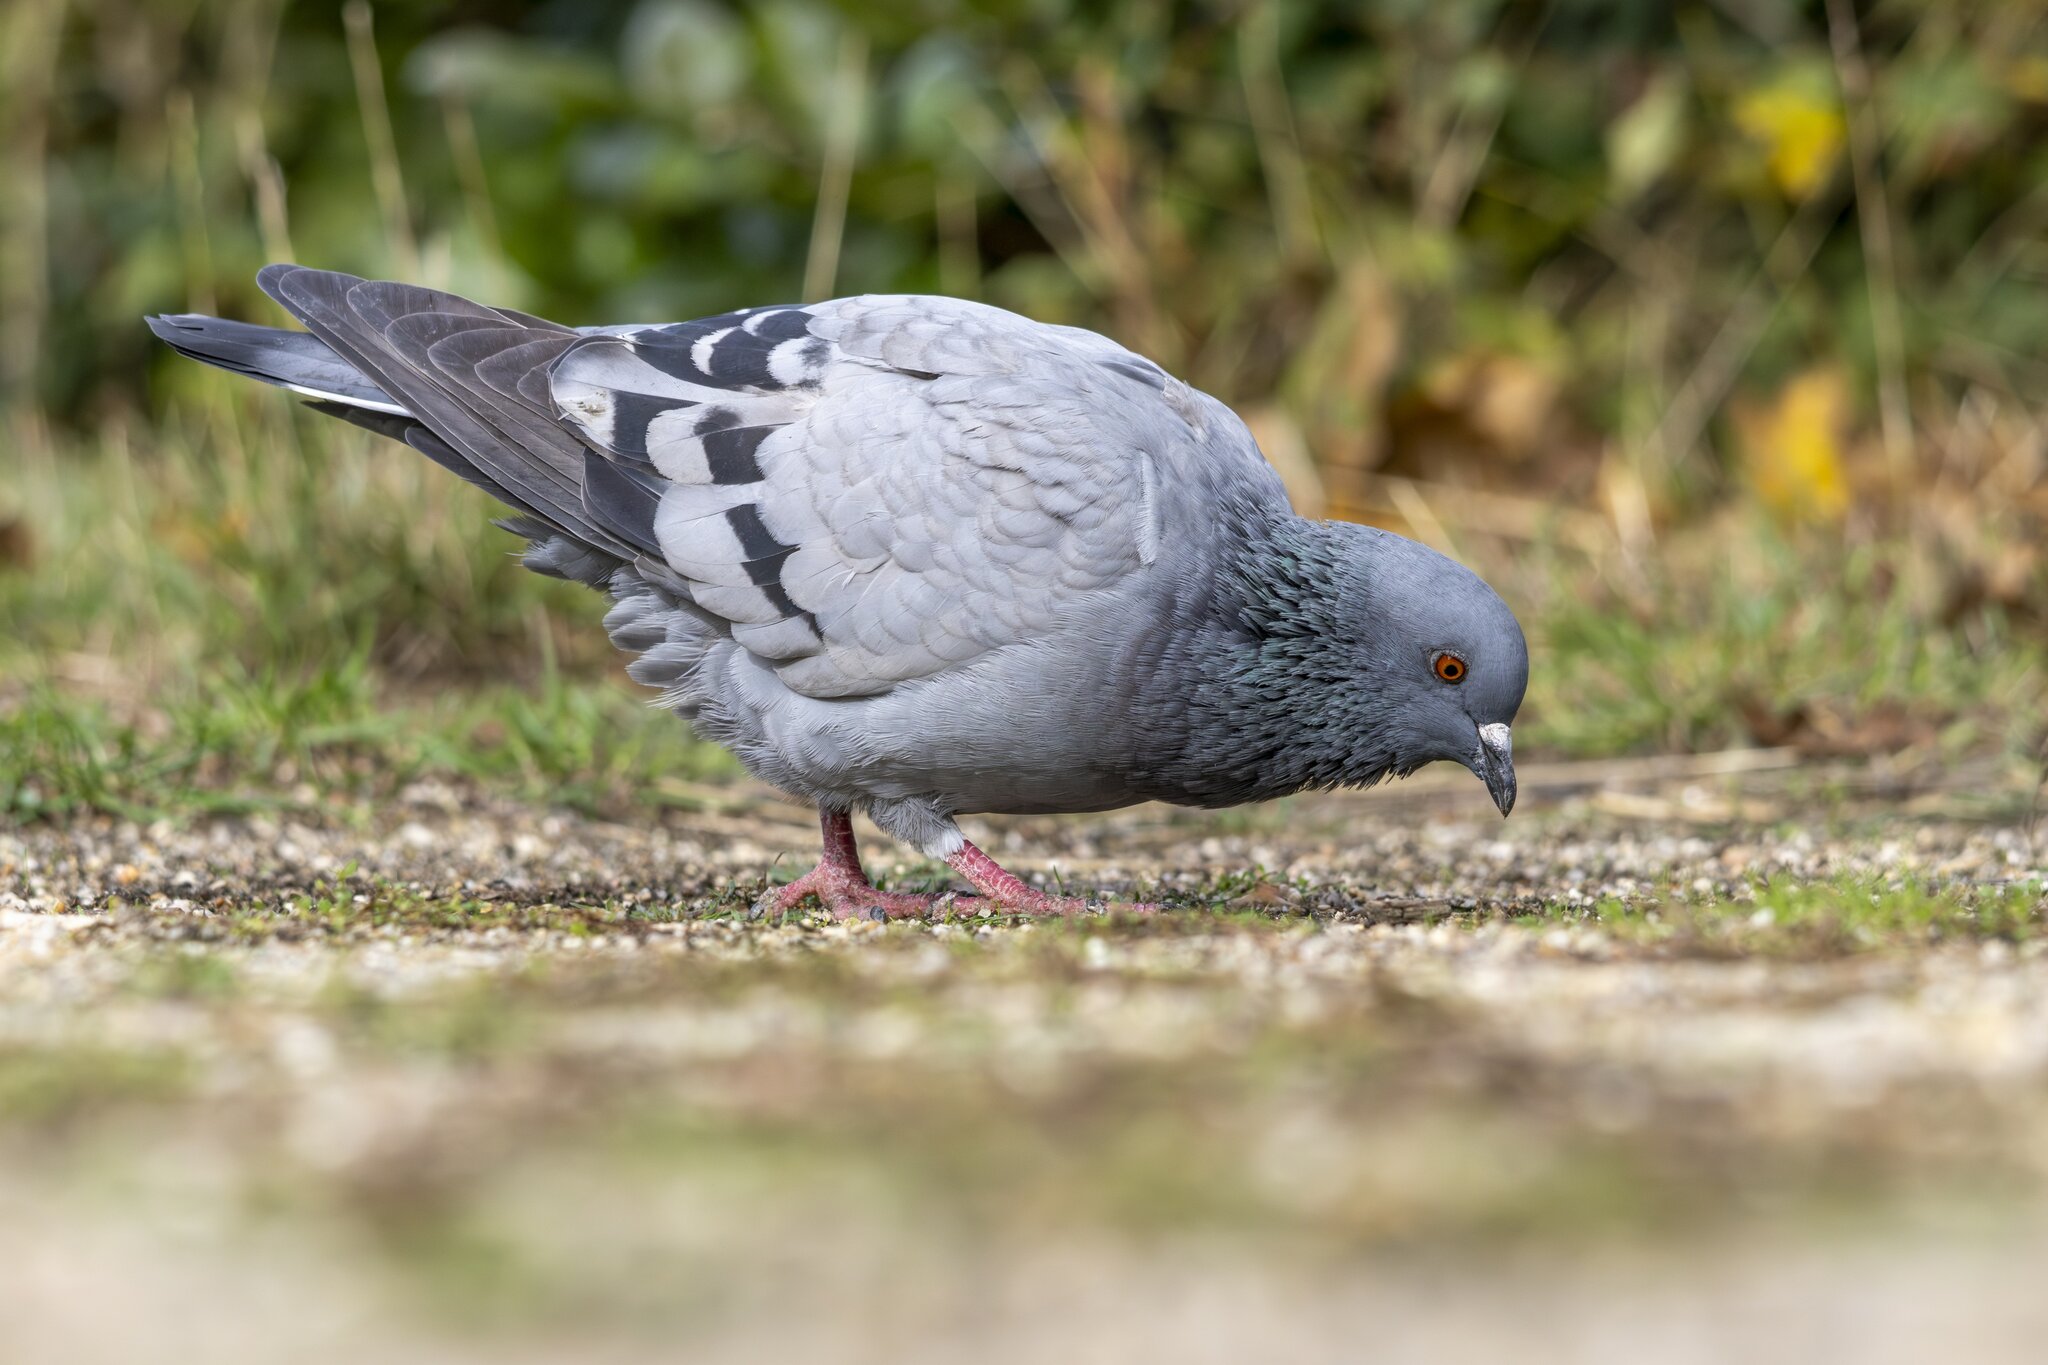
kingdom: Animalia
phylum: Chordata
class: Aves
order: Columbiformes
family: Columbidae
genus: Columba
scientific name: Columba livia
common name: Rock pigeon
